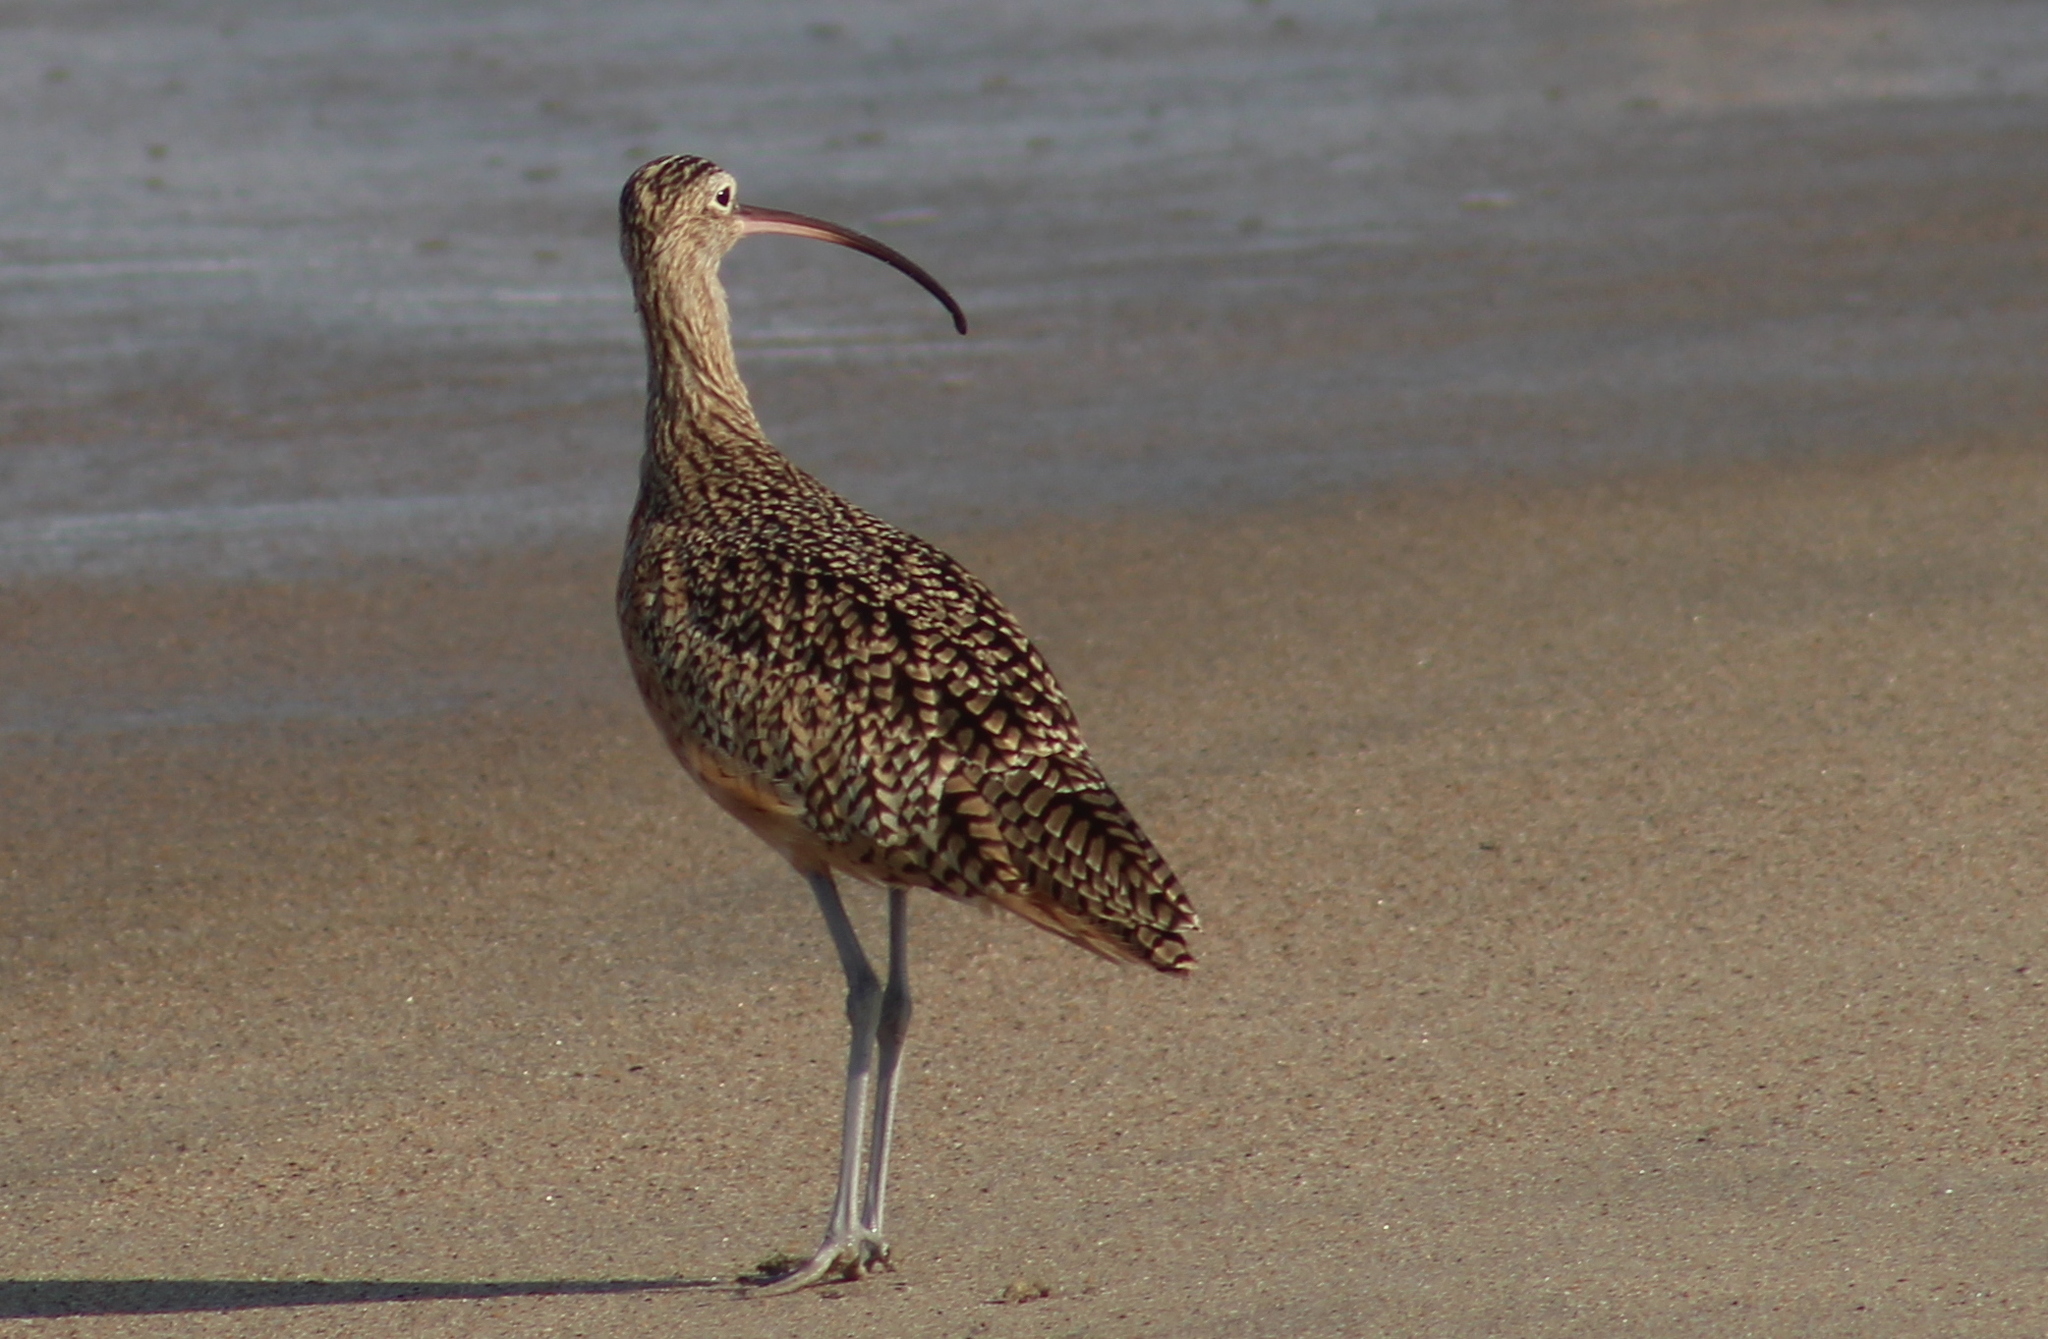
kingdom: Animalia
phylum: Chordata
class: Aves
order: Charadriiformes
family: Scolopacidae
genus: Numenius
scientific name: Numenius americanus
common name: Long-billed curlew
